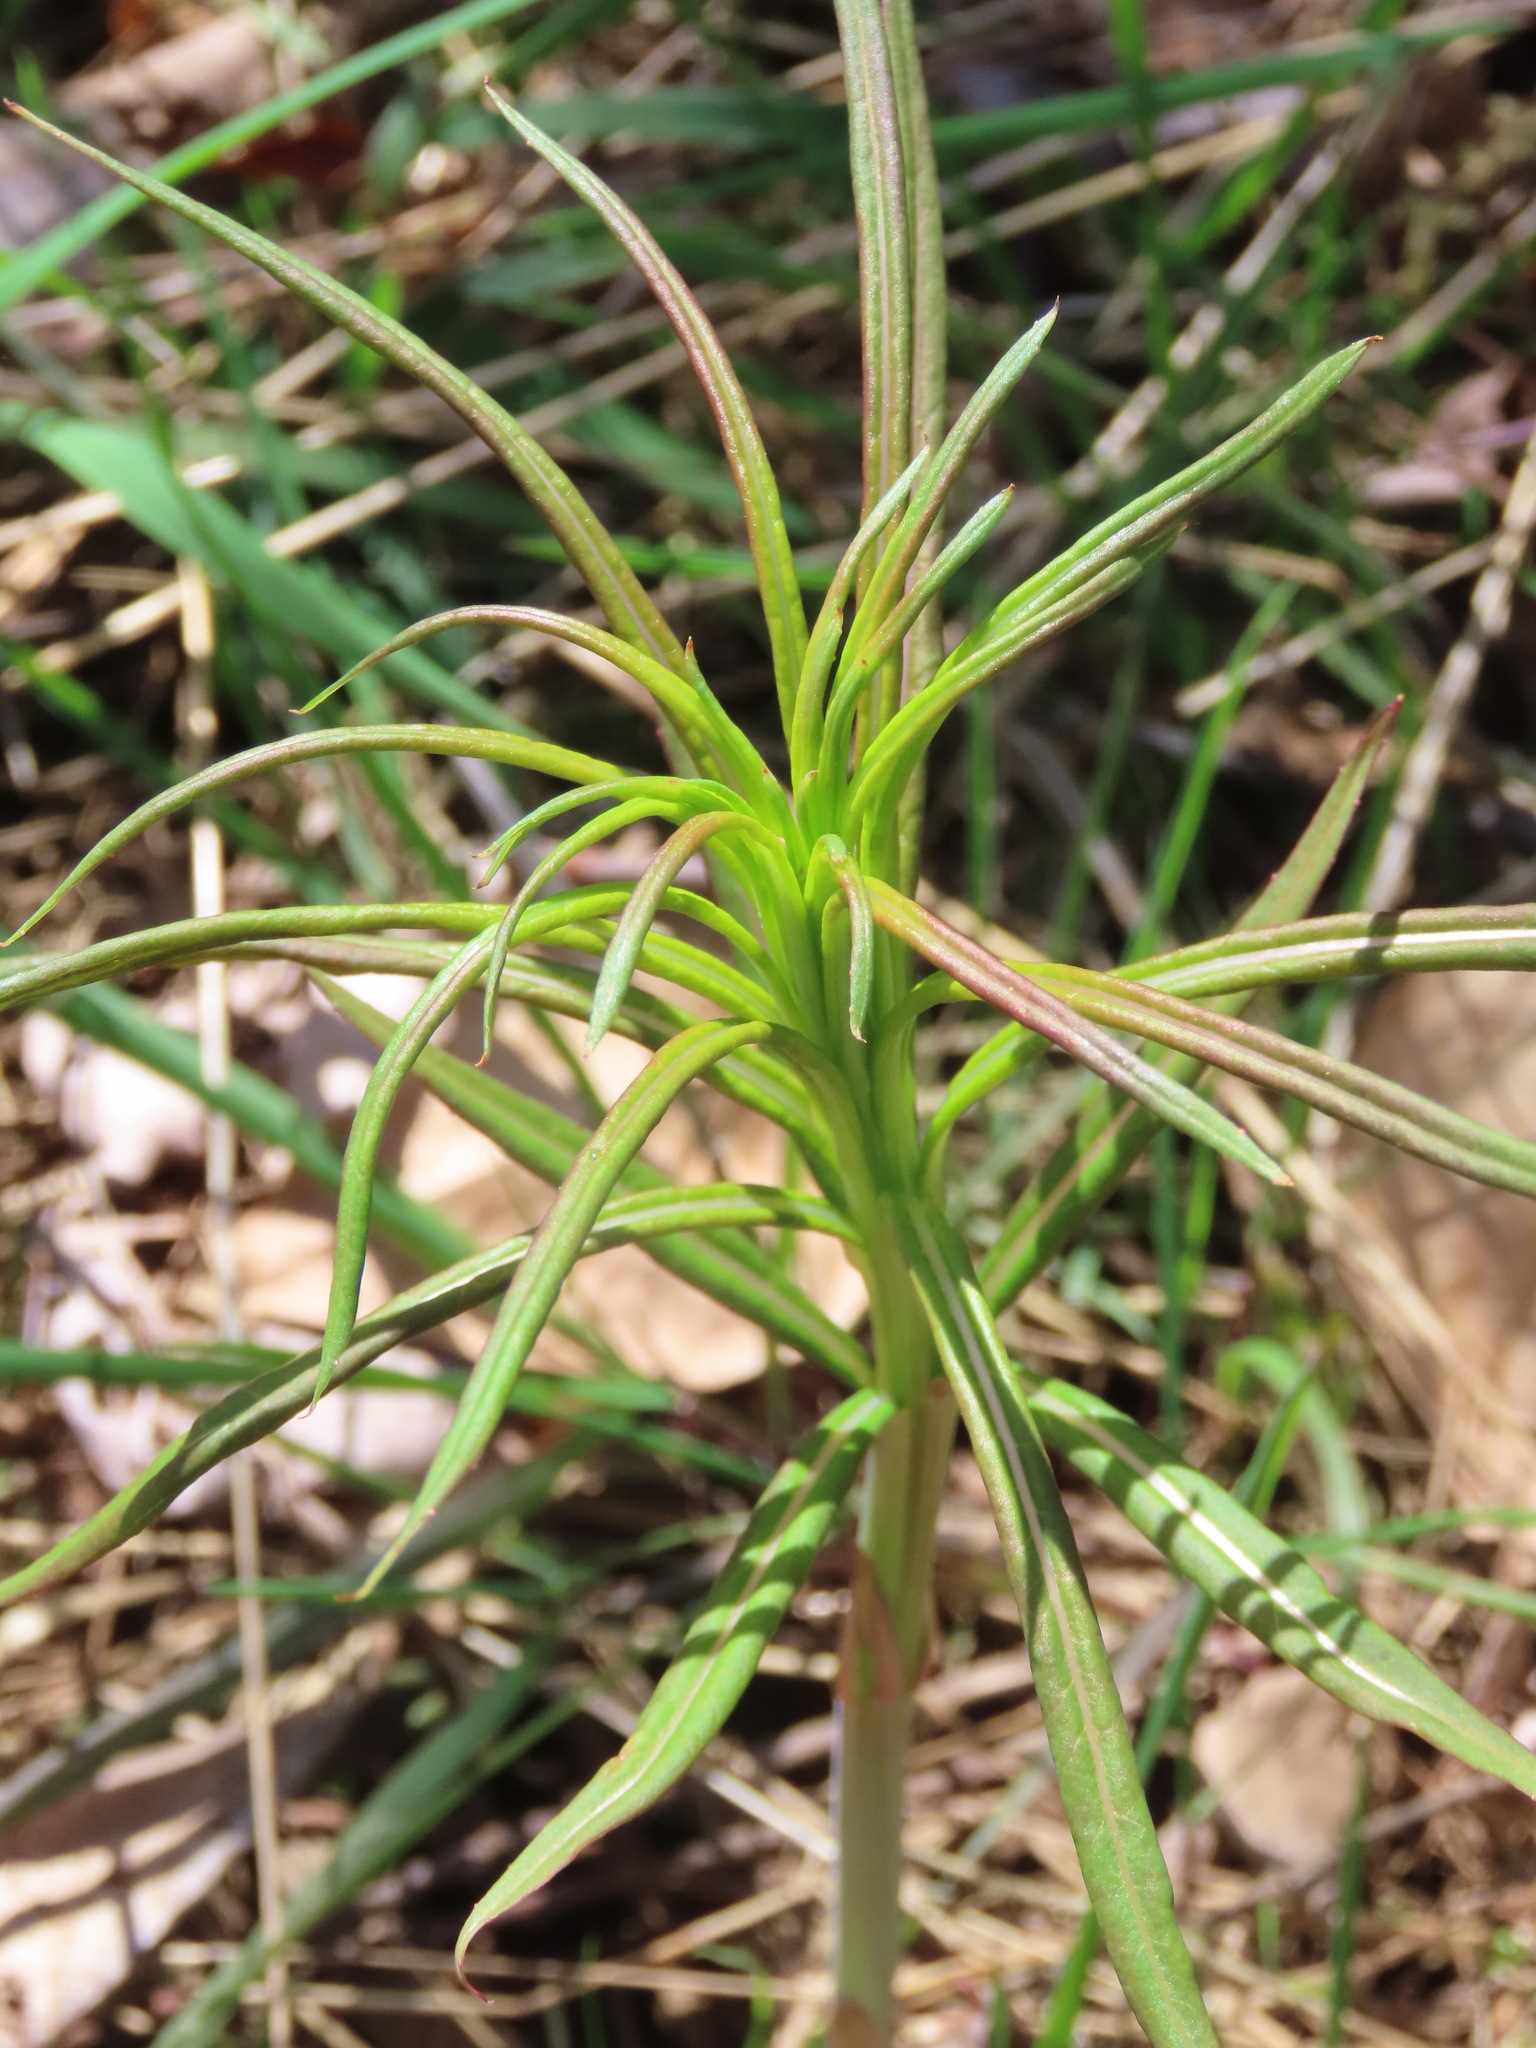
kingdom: Plantae
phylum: Tracheophyta
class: Magnoliopsida
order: Myrtales
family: Onagraceae
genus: Chamaenerion
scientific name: Chamaenerion angustifolium
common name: Fireweed
